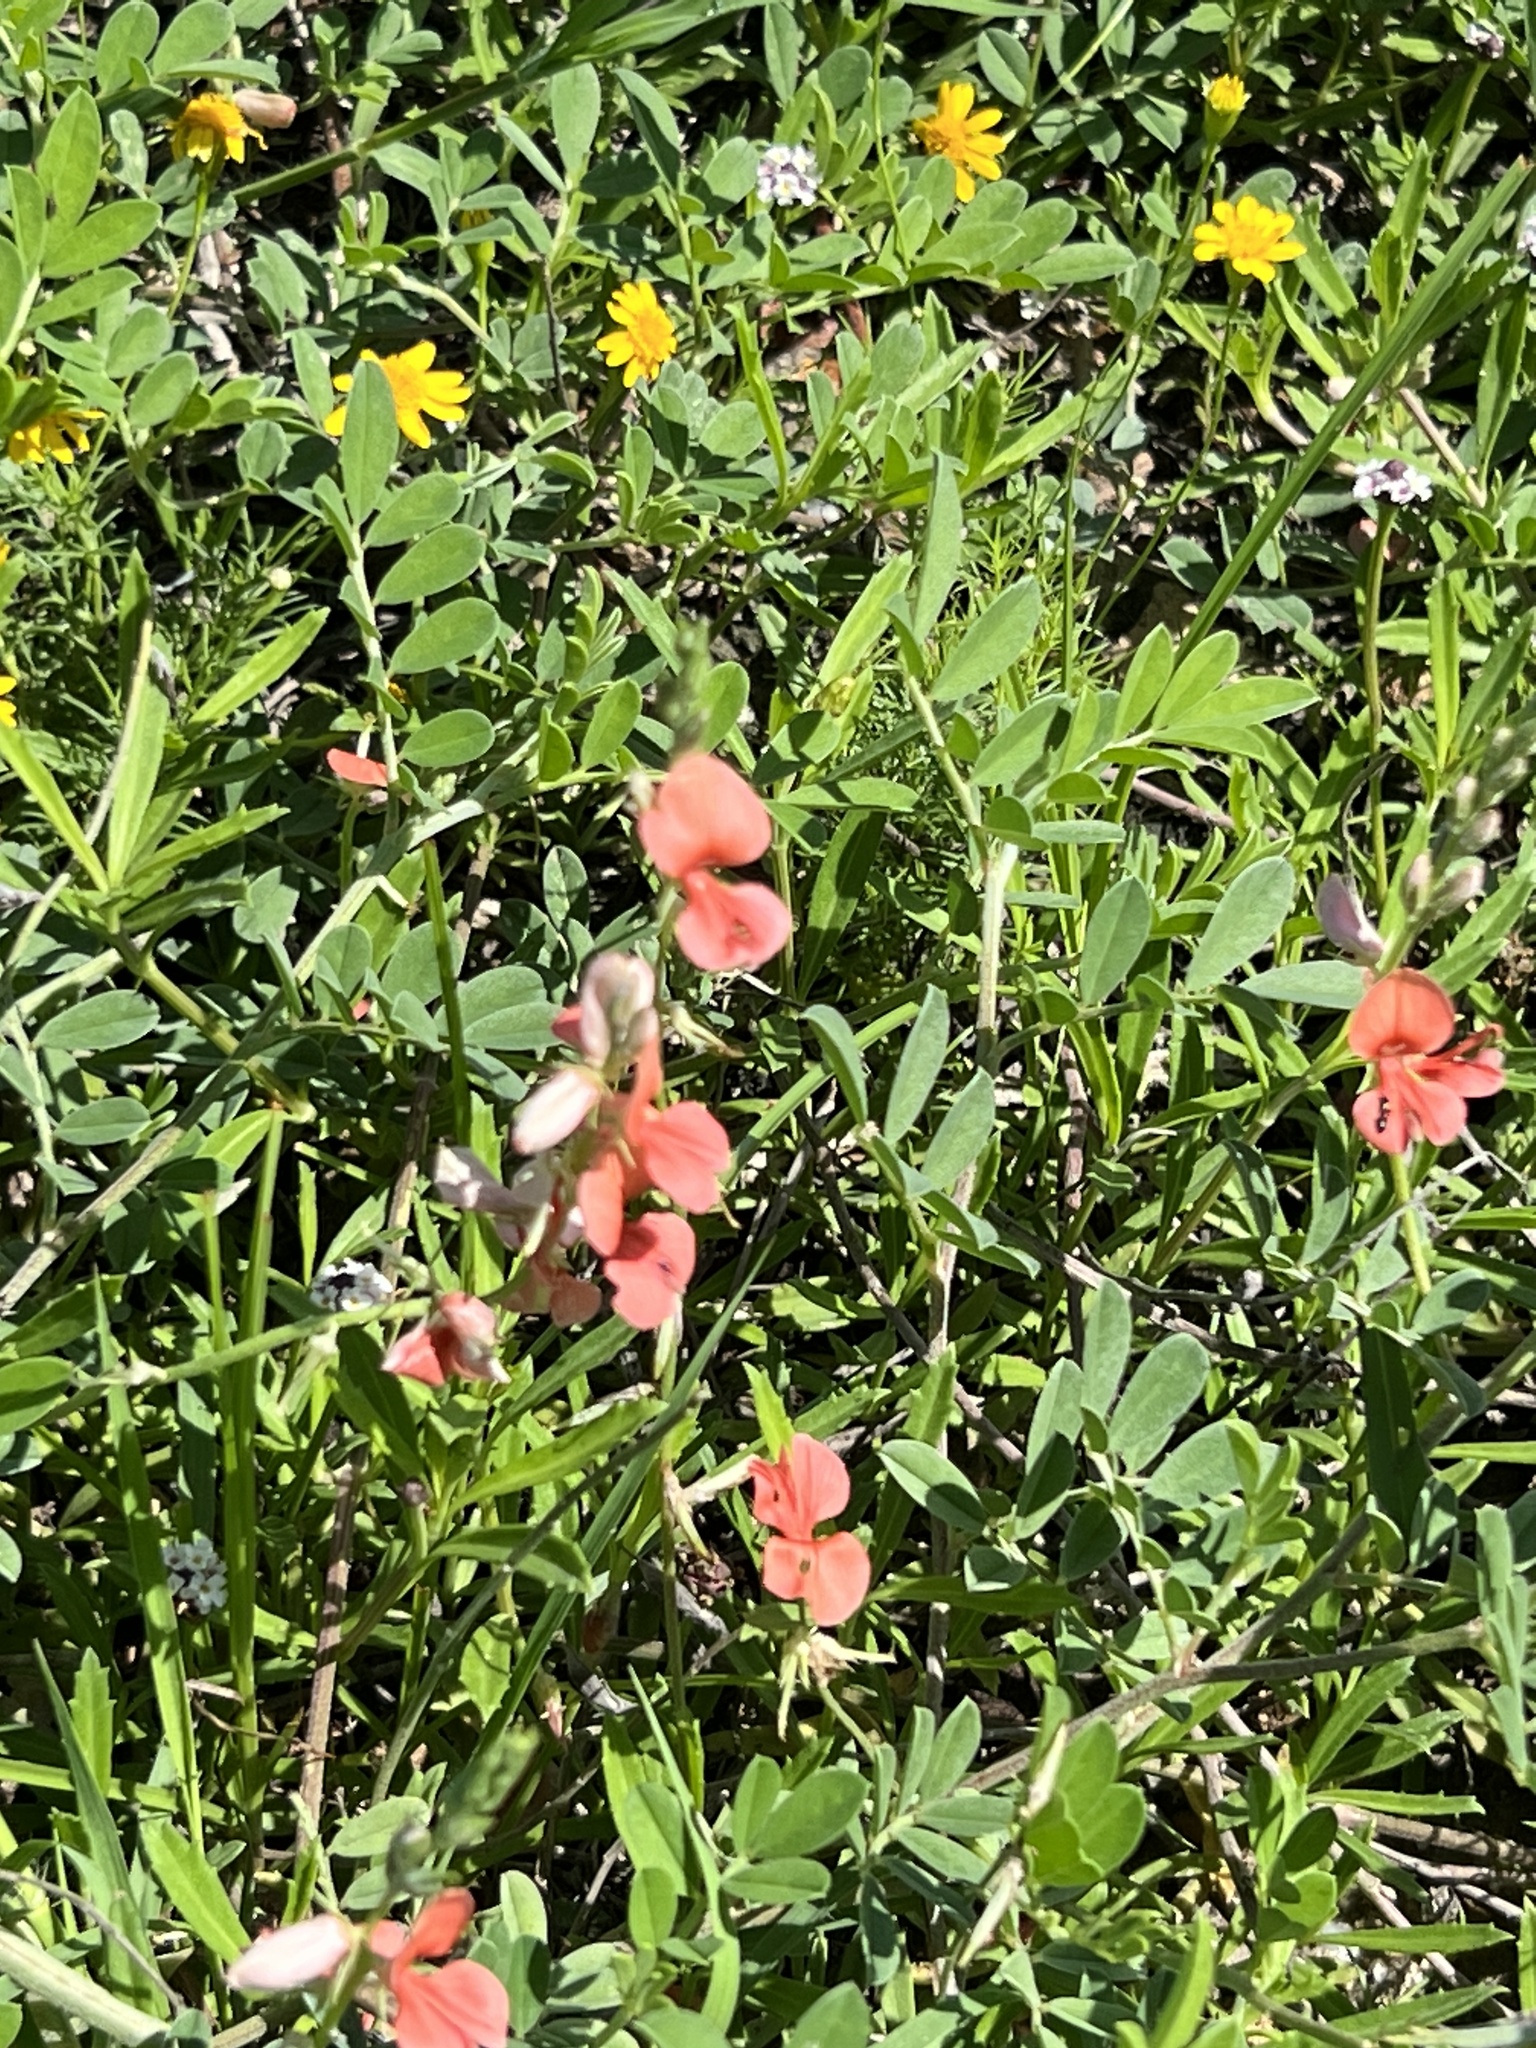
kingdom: Plantae
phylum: Tracheophyta
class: Magnoliopsida
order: Fabales
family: Fabaceae
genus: Indigofera
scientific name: Indigofera miniata
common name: Coast indigo
